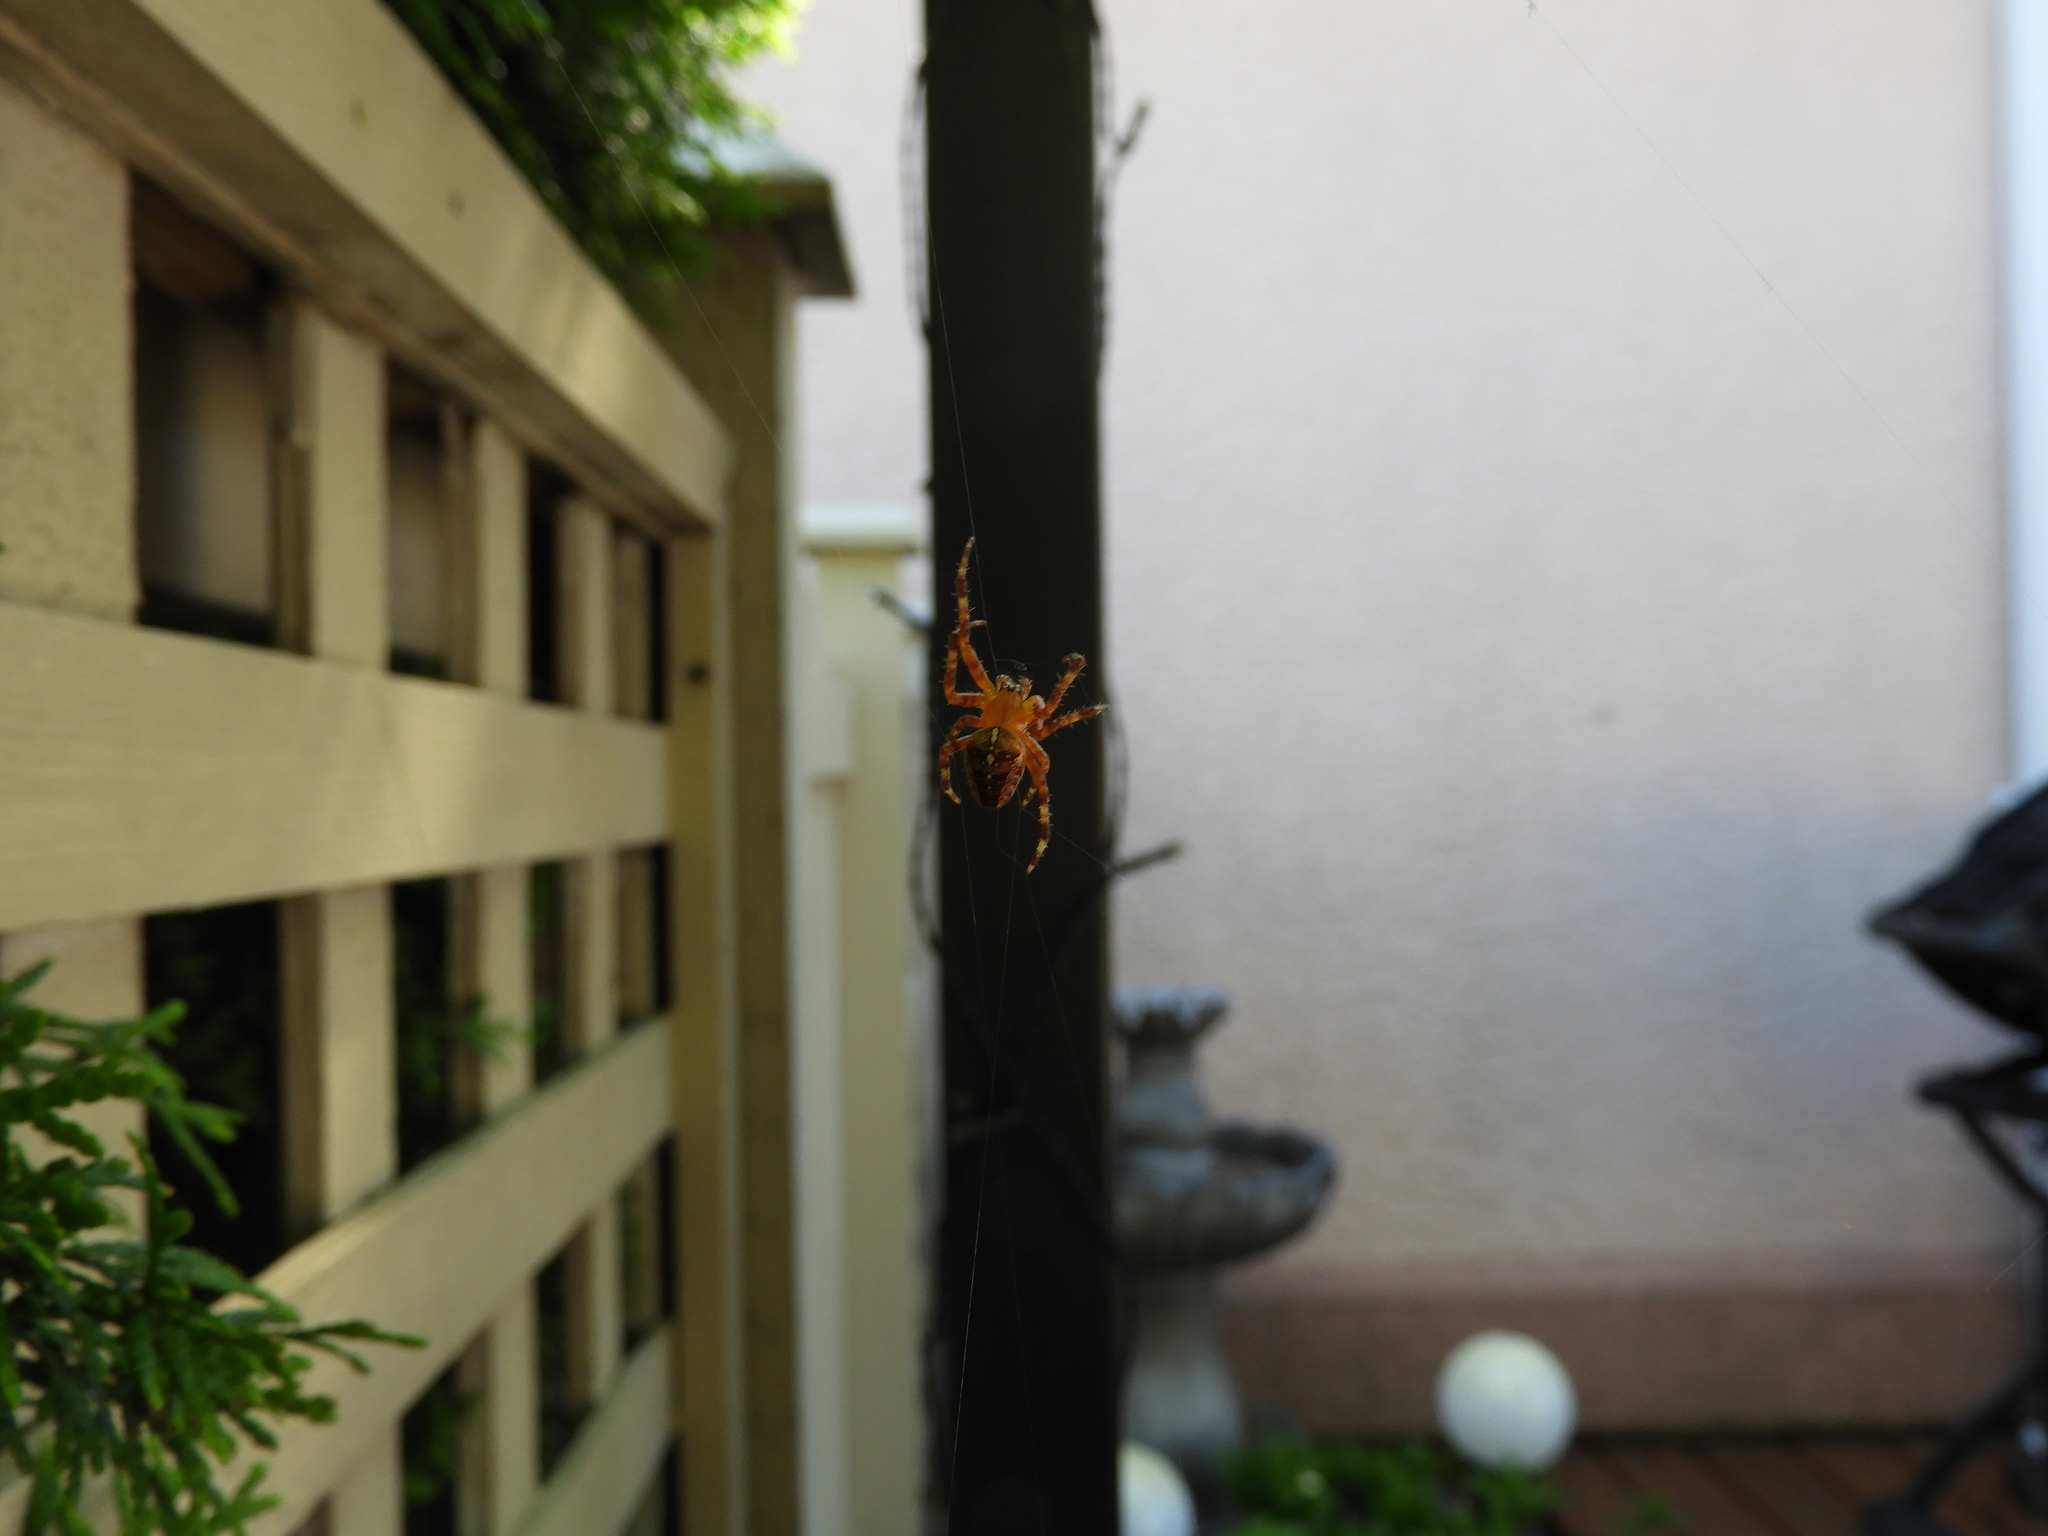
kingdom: Animalia
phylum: Arthropoda
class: Arachnida
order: Araneae
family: Araneidae
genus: Araneus
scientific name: Araneus diadematus
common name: Cross orbweaver
